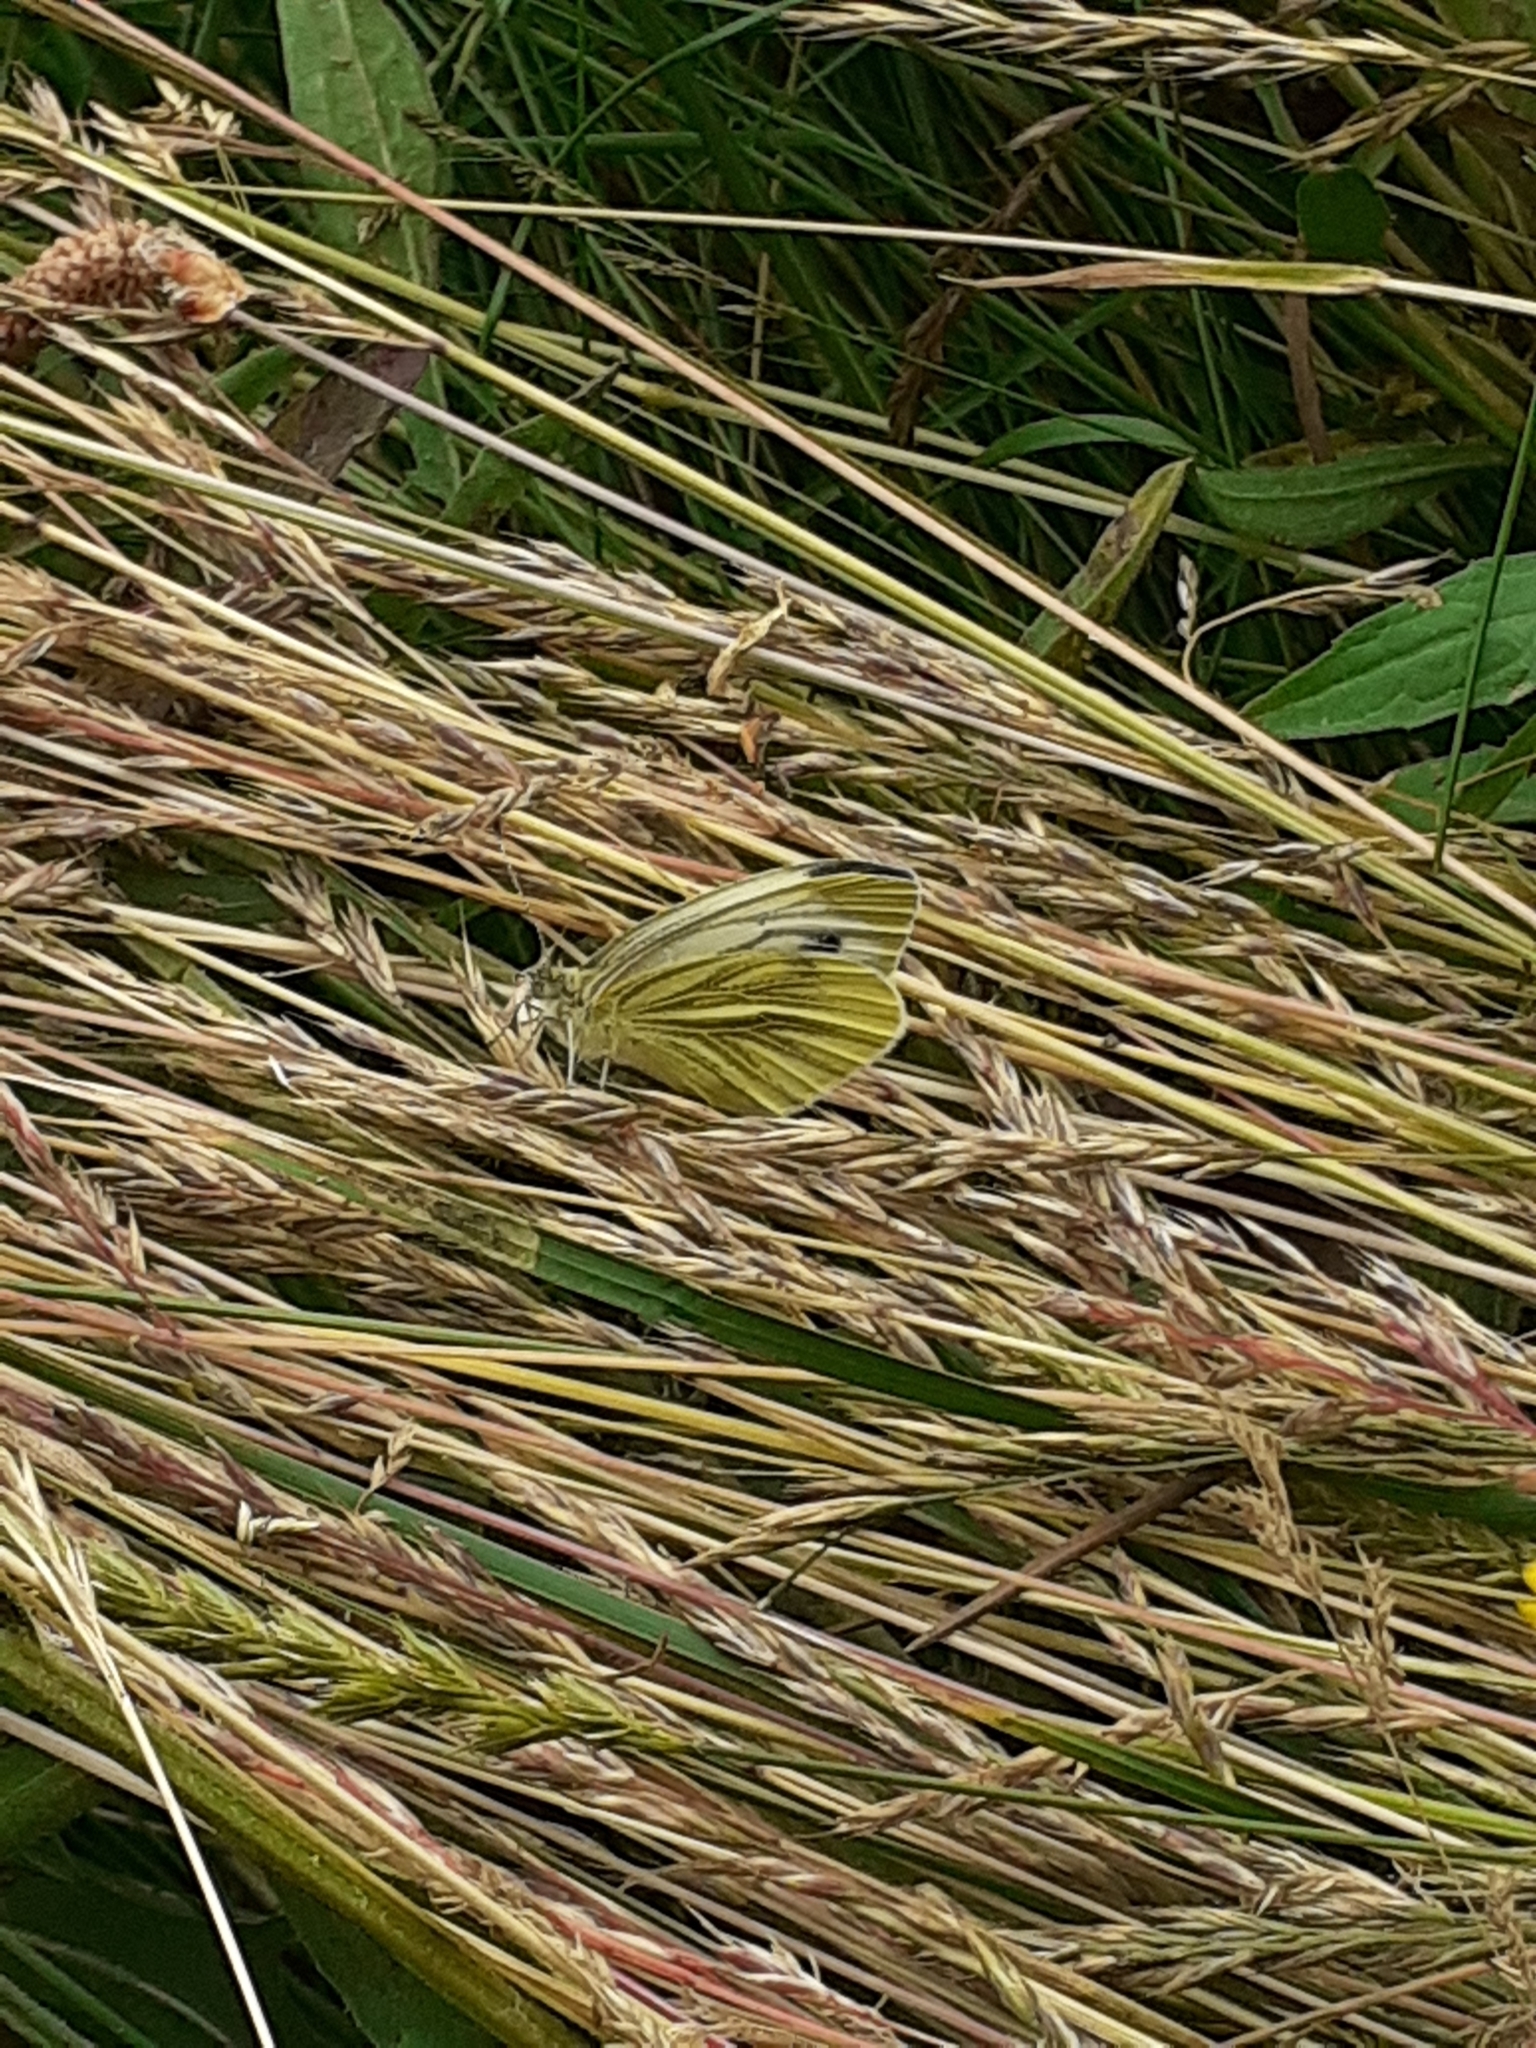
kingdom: Animalia
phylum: Arthropoda
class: Insecta
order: Lepidoptera
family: Pieridae
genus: Pieris
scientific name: Pieris napi
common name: Green-veined white
